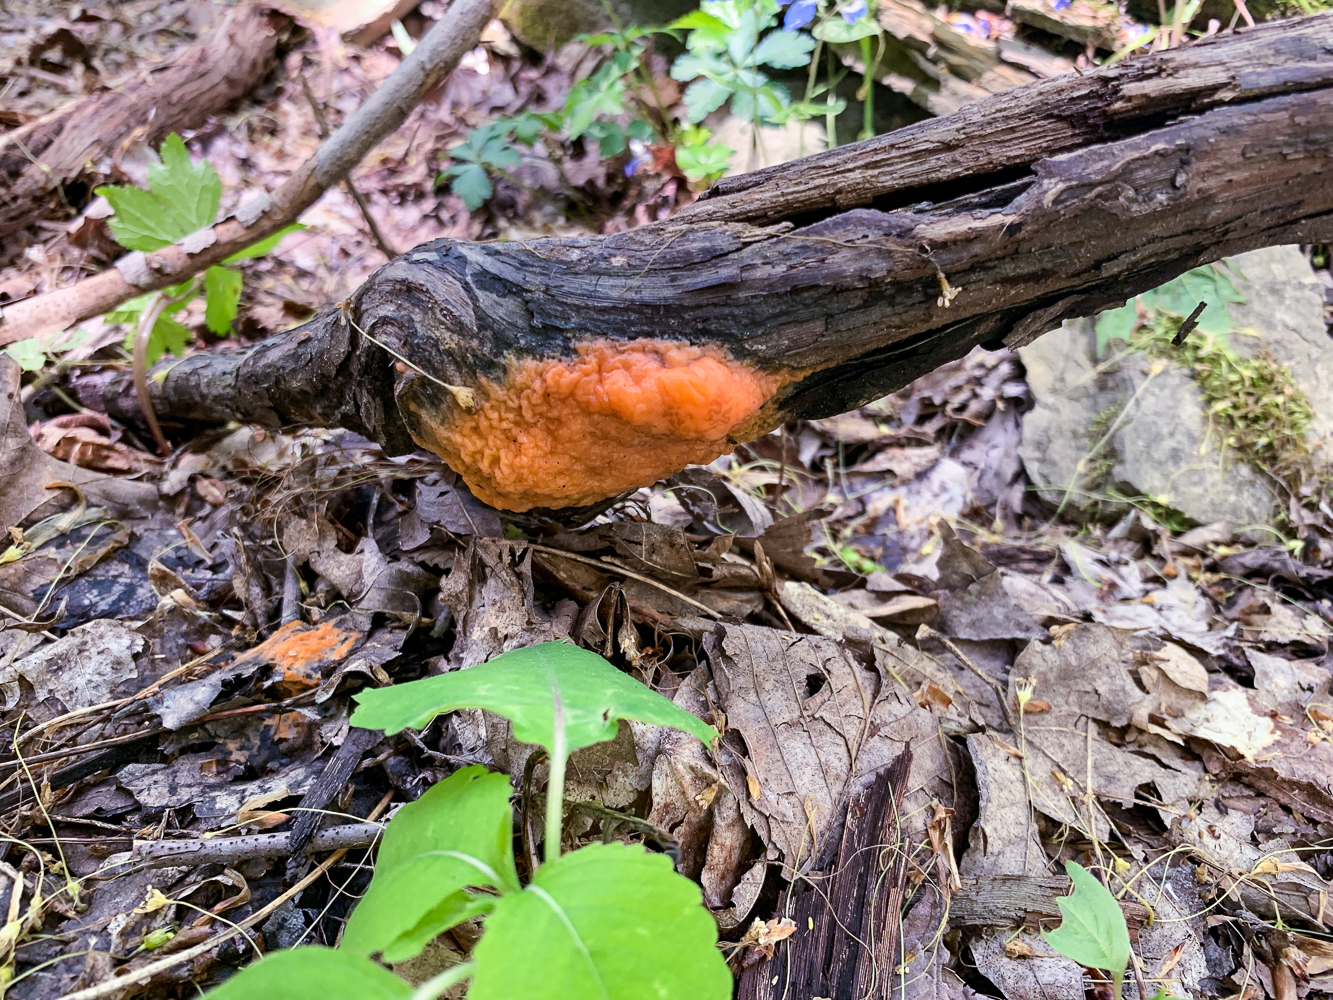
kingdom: Fungi
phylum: Ascomycota
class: Sordariomycetes
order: Hypocreales
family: Nectriaceae
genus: Fusicolla
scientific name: Fusicolla merismoides
